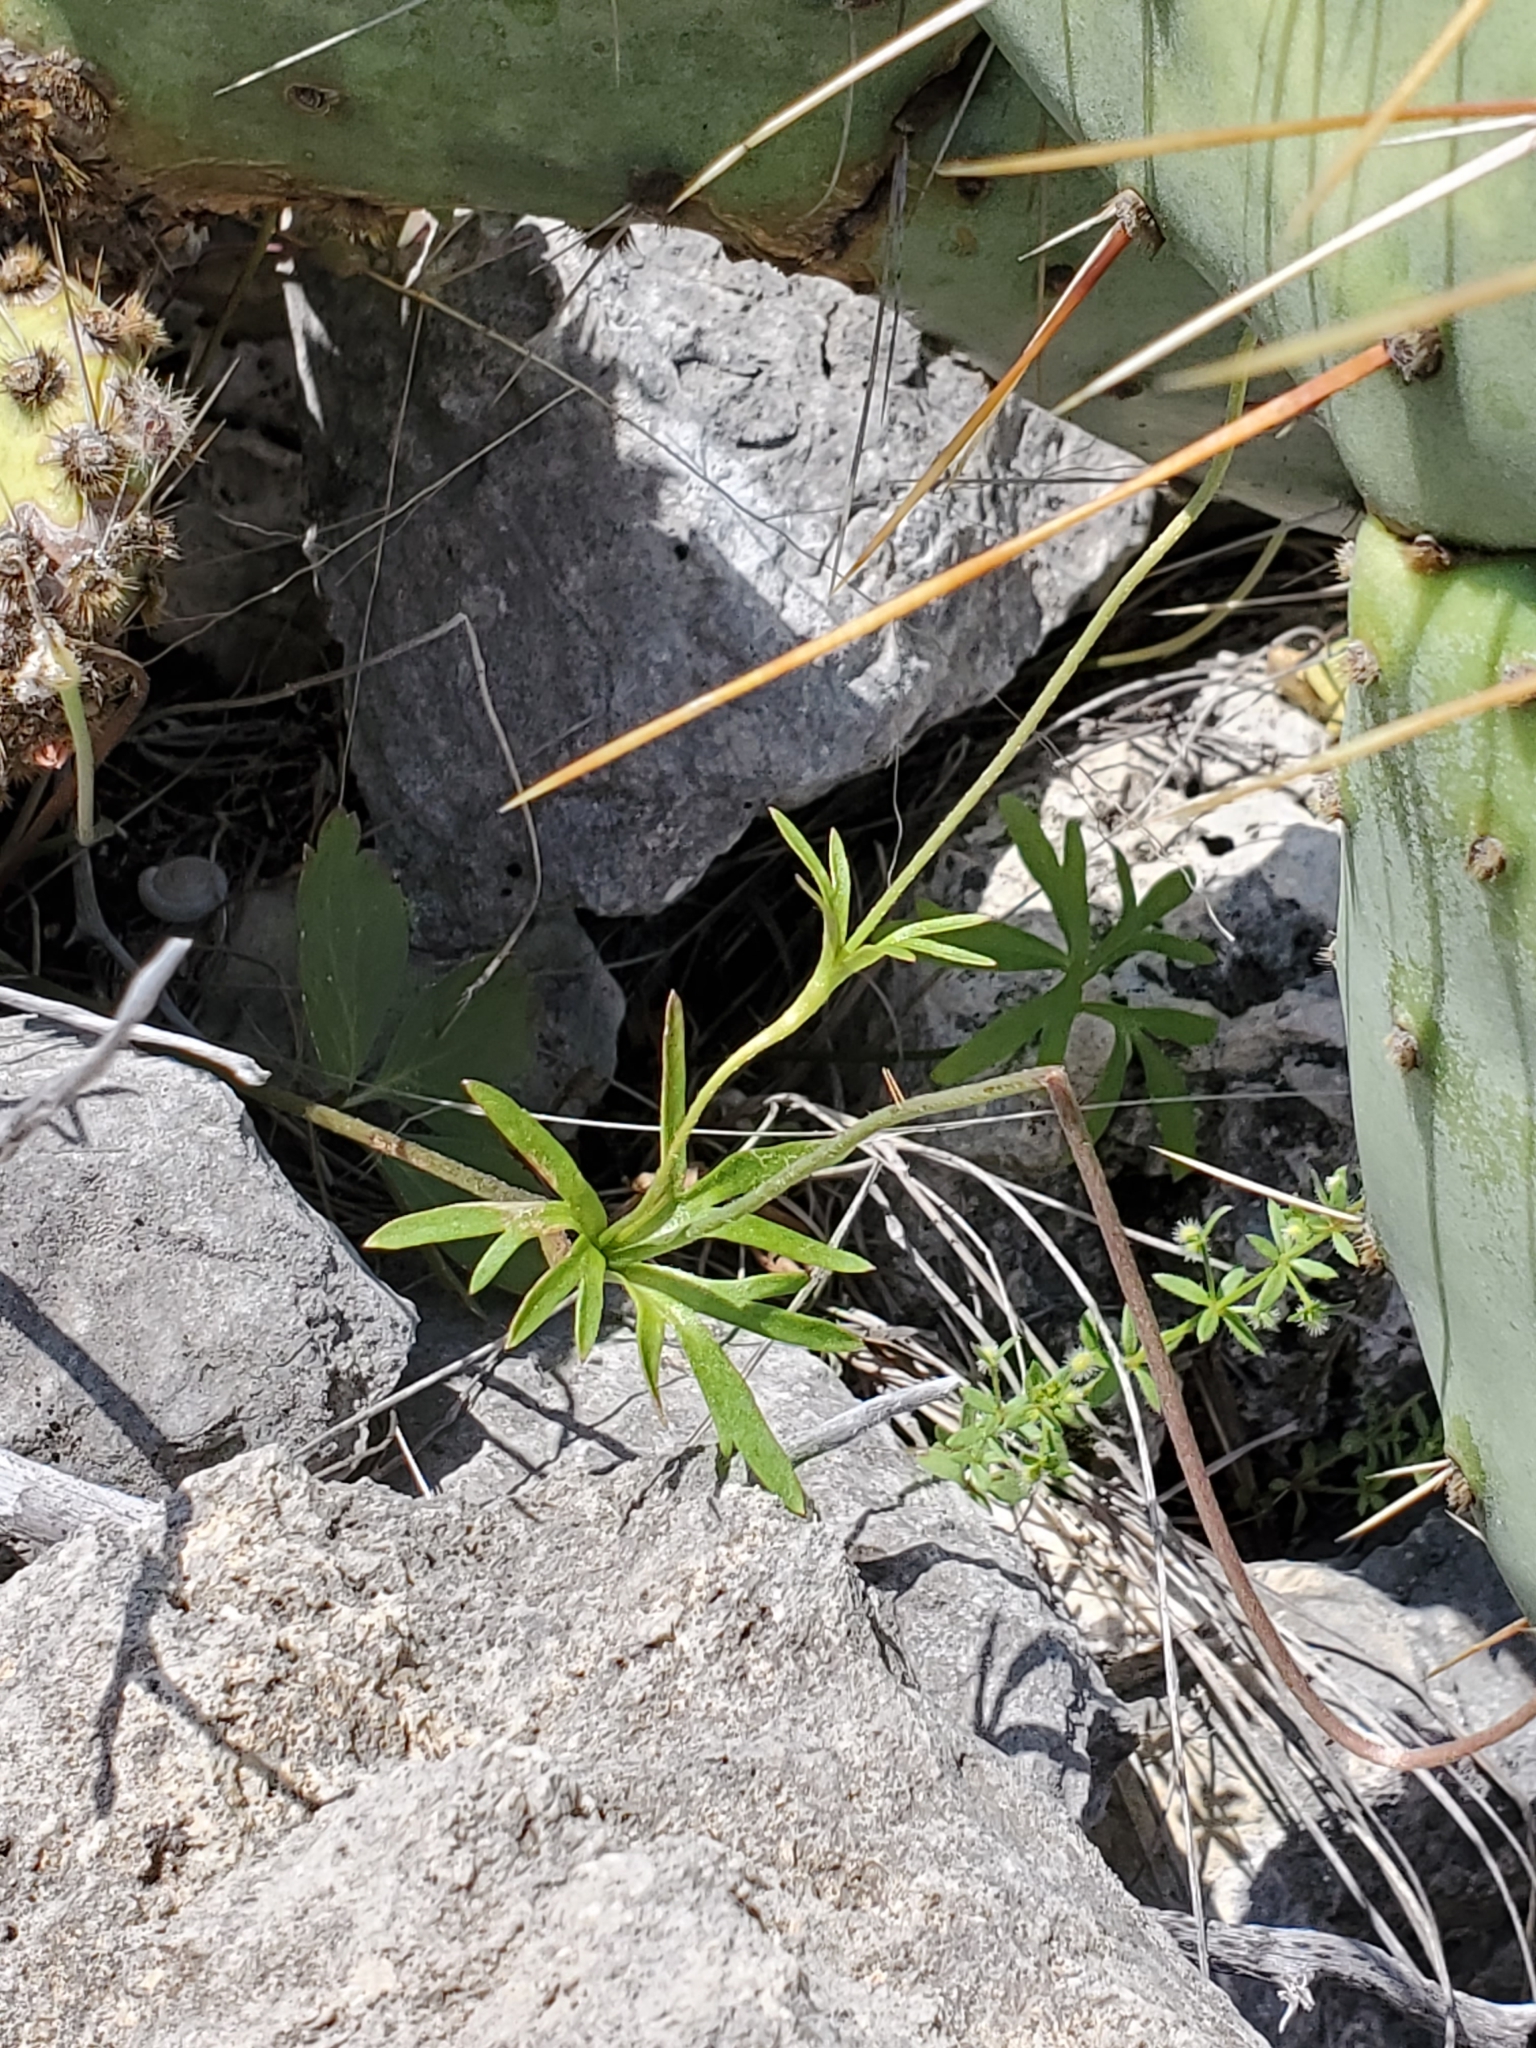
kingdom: Plantae
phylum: Tracheophyta
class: Magnoliopsida
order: Ranunculales
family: Ranunculaceae
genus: Anemone
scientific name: Anemone edwardsiana
